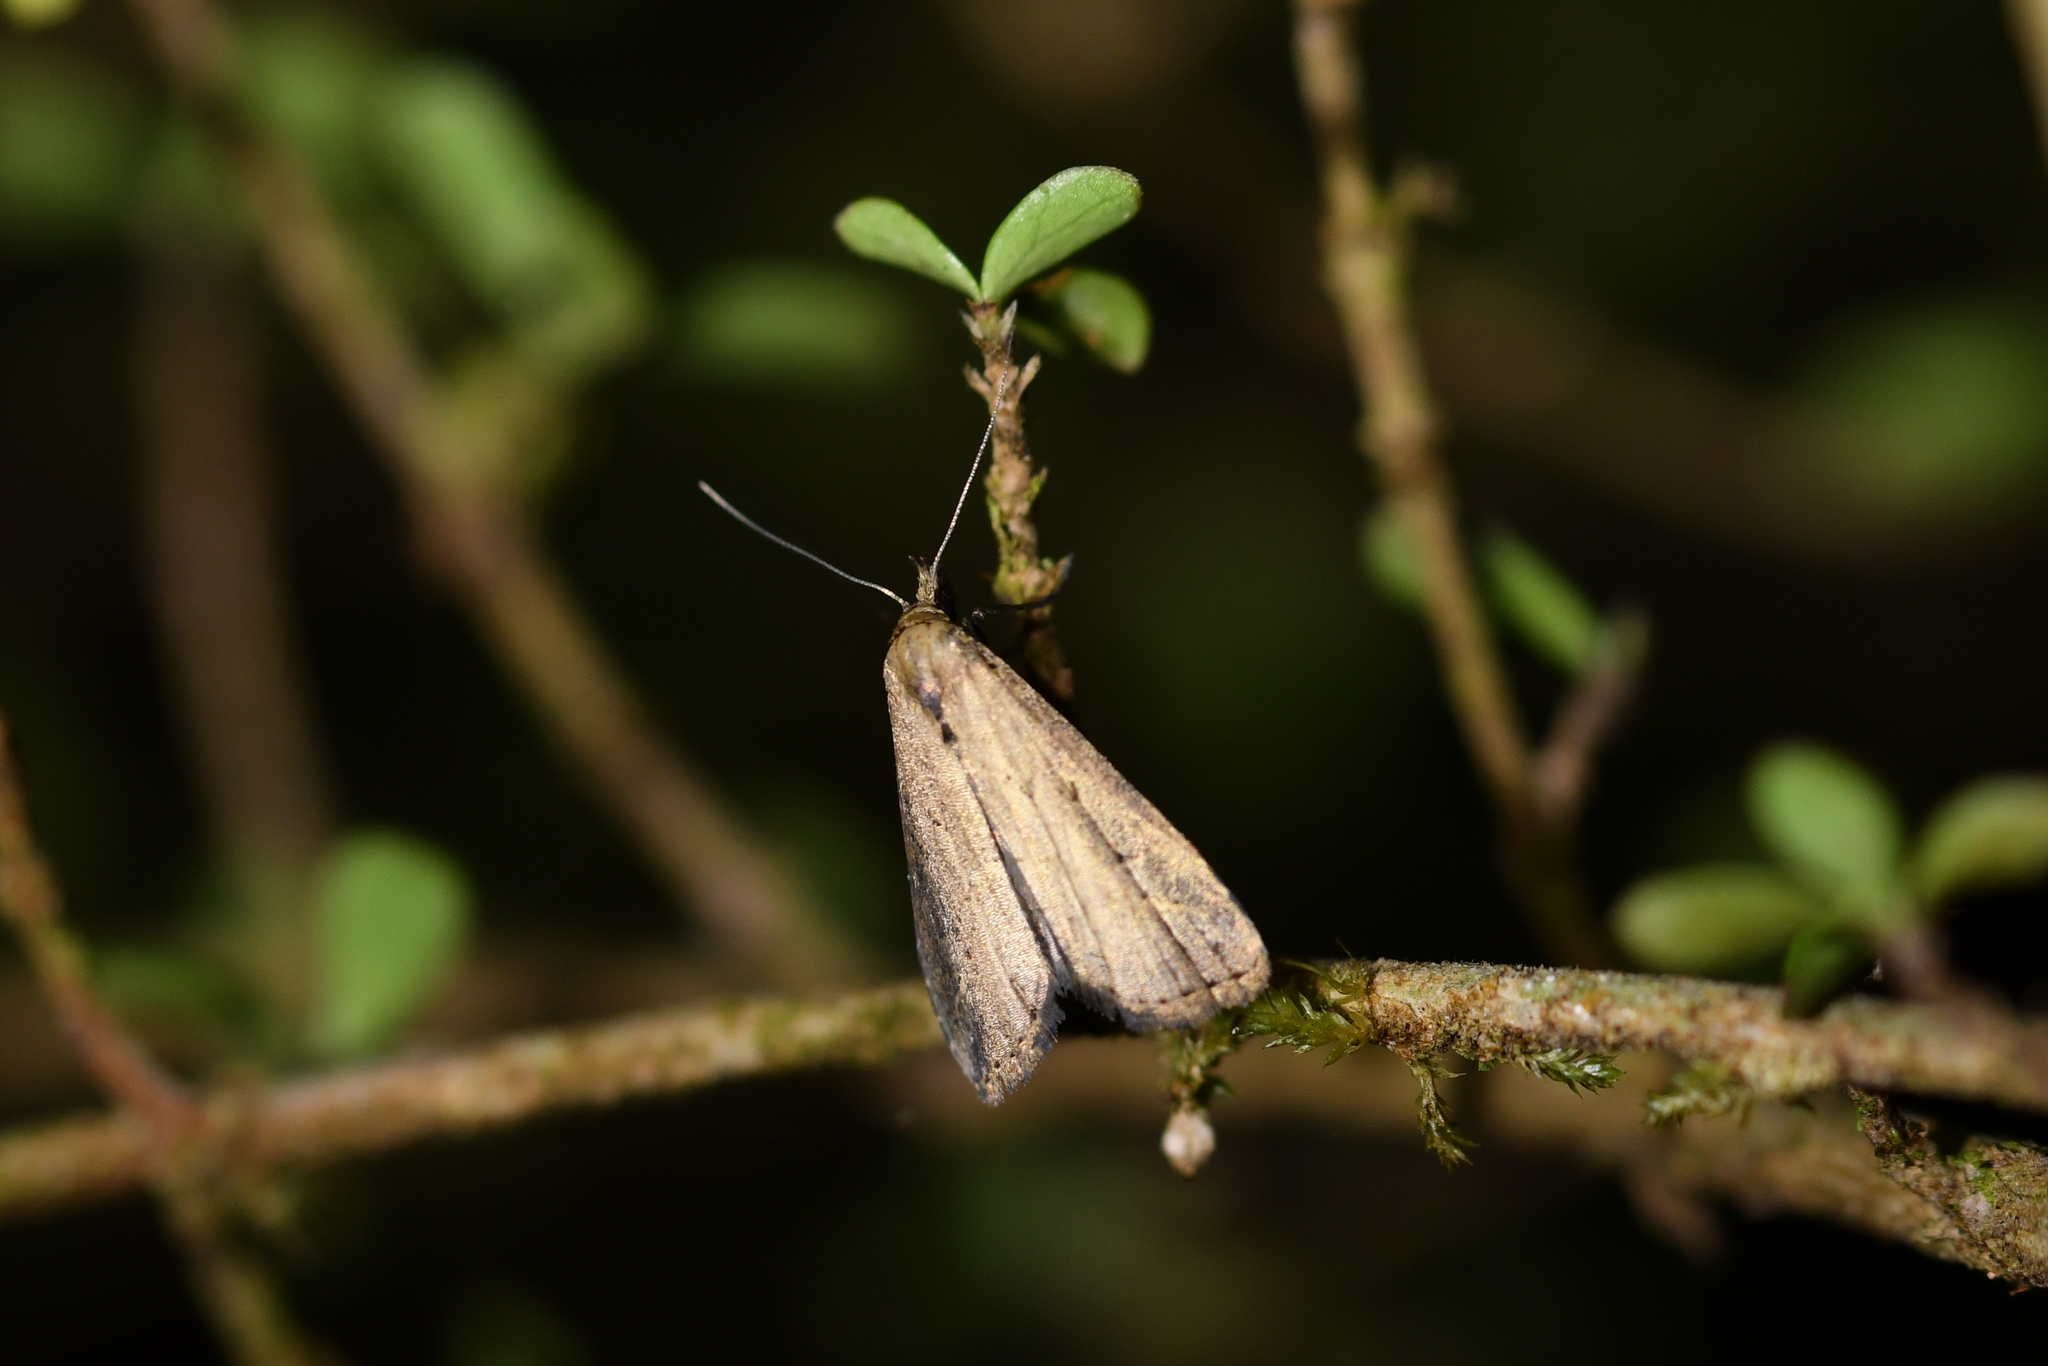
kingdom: Animalia
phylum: Arthropoda
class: Insecta
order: Lepidoptera
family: Erebidae
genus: Schrankia
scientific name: Schrankia costaestrigalis
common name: Pinion-streaked snout
